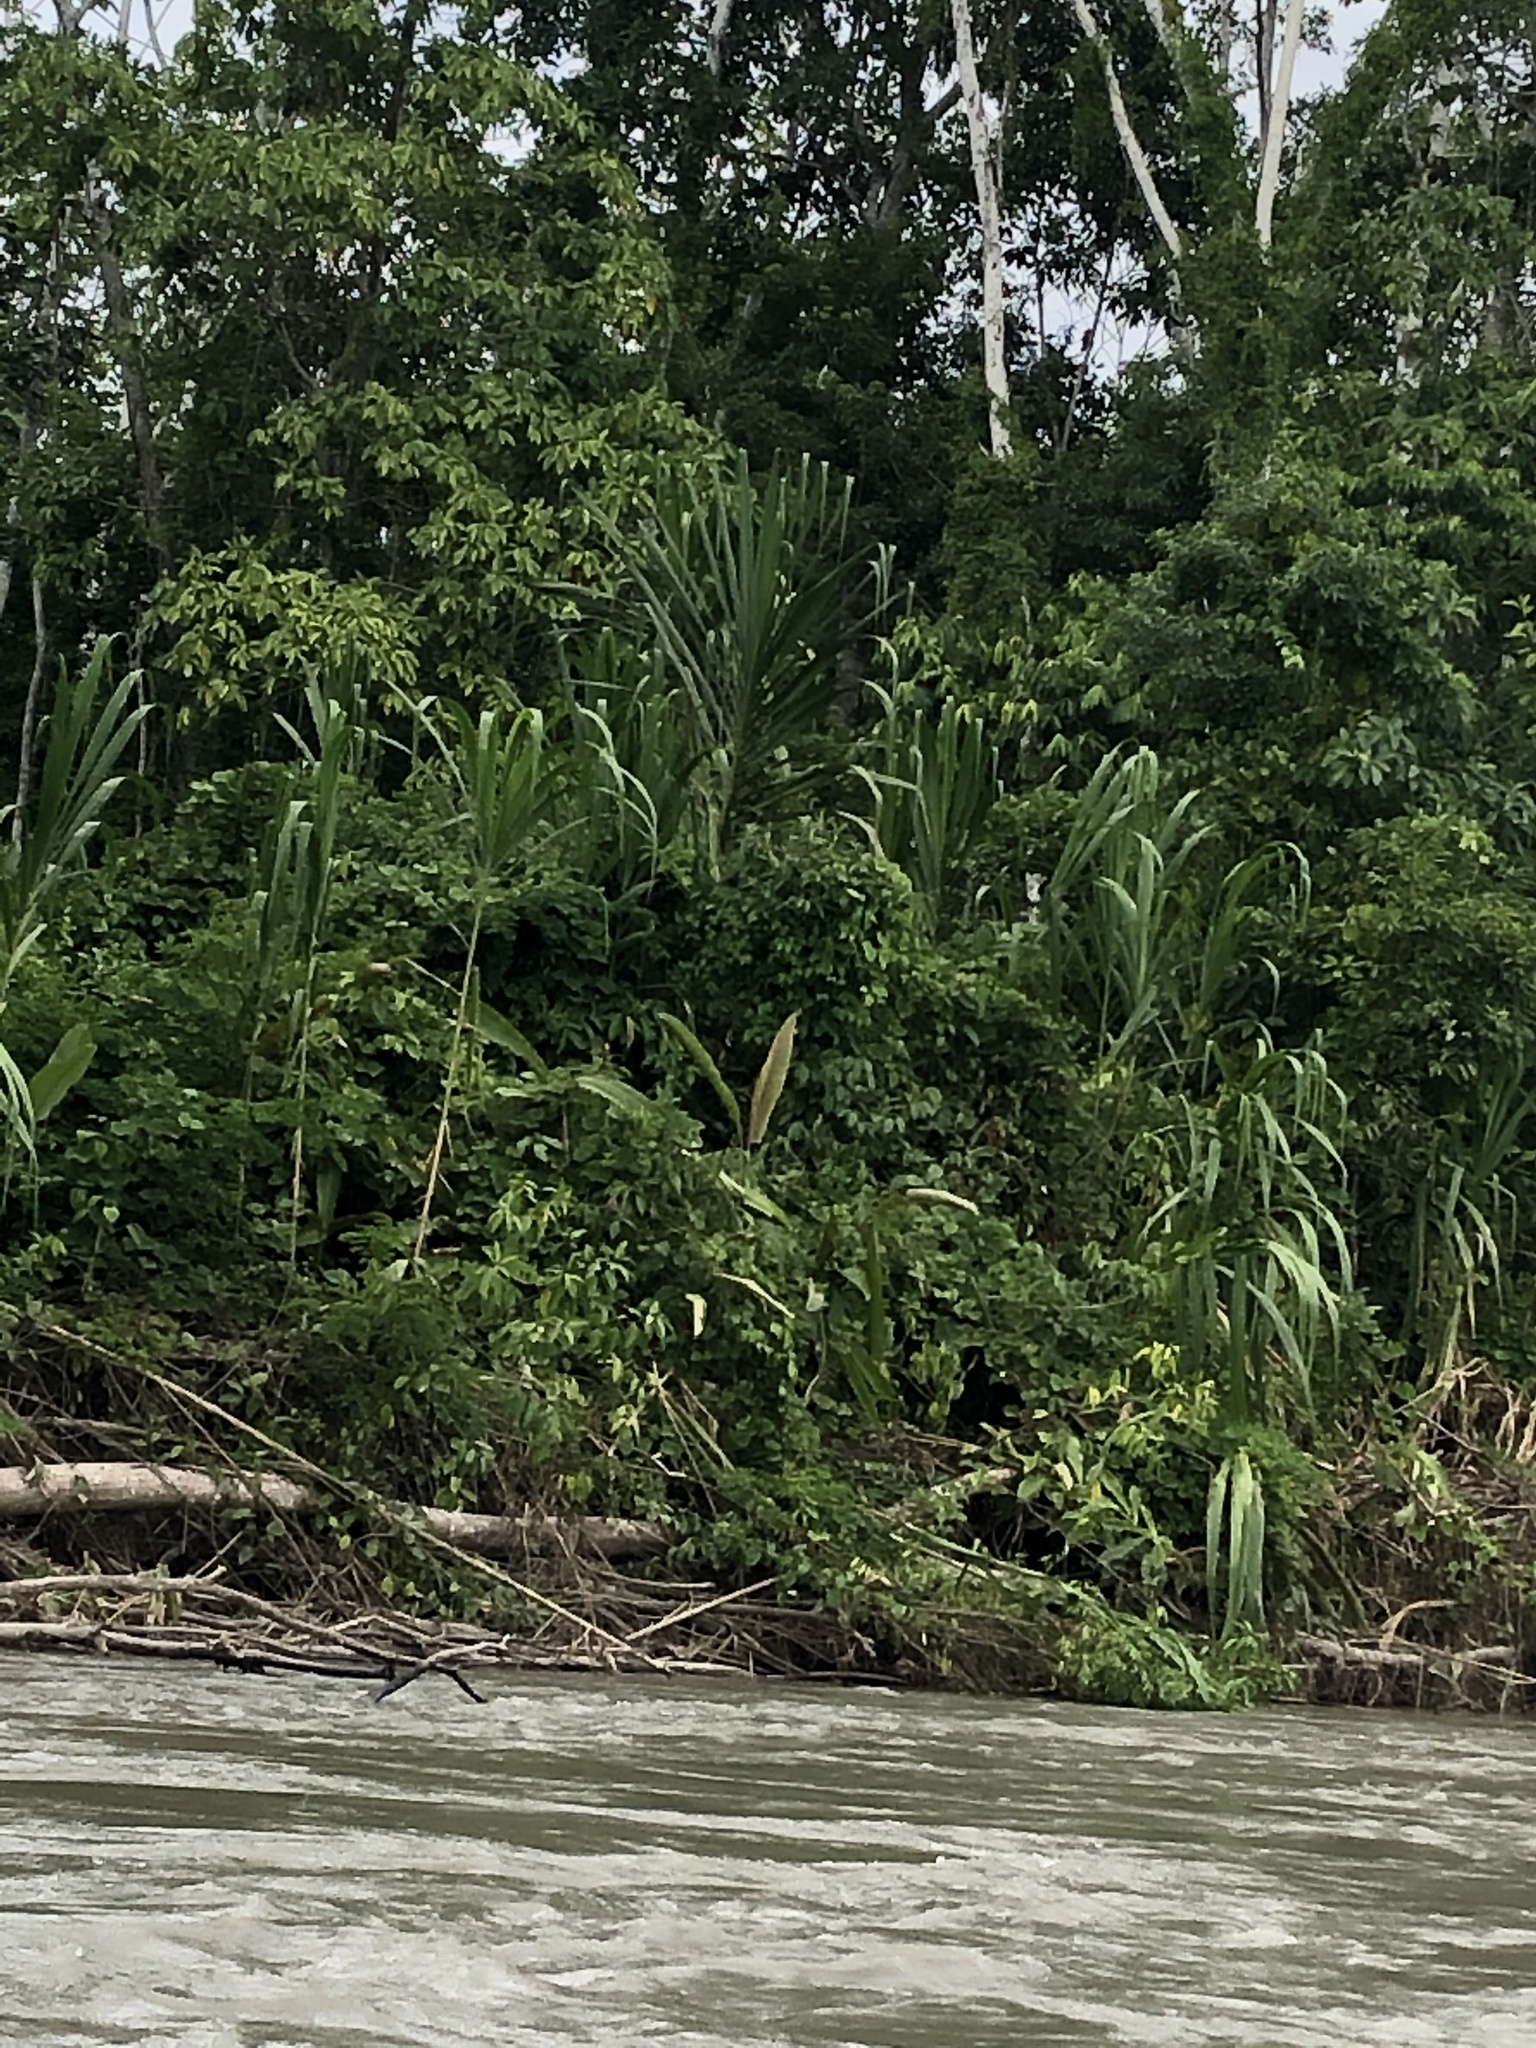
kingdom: Plantae
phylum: Tracheophyta
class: Liliopsida
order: Poales
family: Poaceae
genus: Gynerium
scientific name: Gynerium sagittatum
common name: Wild cane
